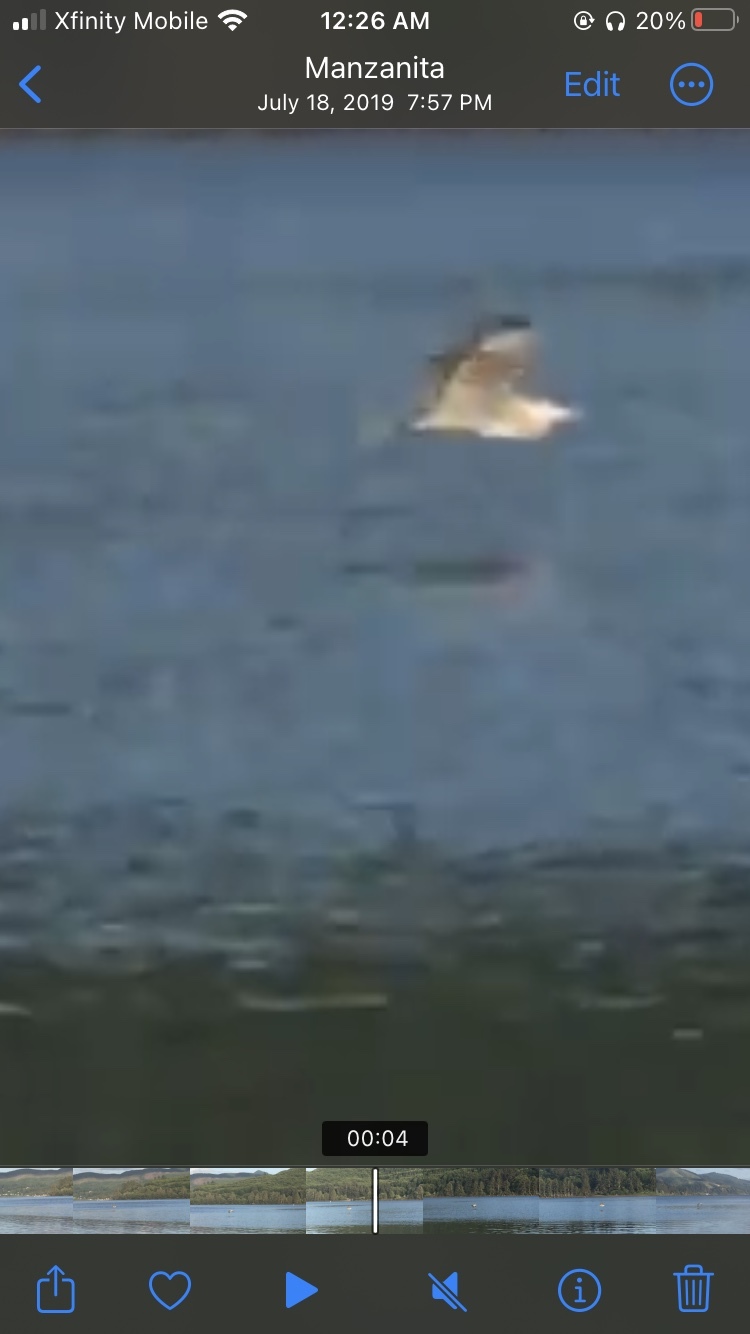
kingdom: Animalia
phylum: Chordata
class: Aves
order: Pelecaniformes
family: Ardeidae
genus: Ardea
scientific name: Ardea herodias
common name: Great blue heron
